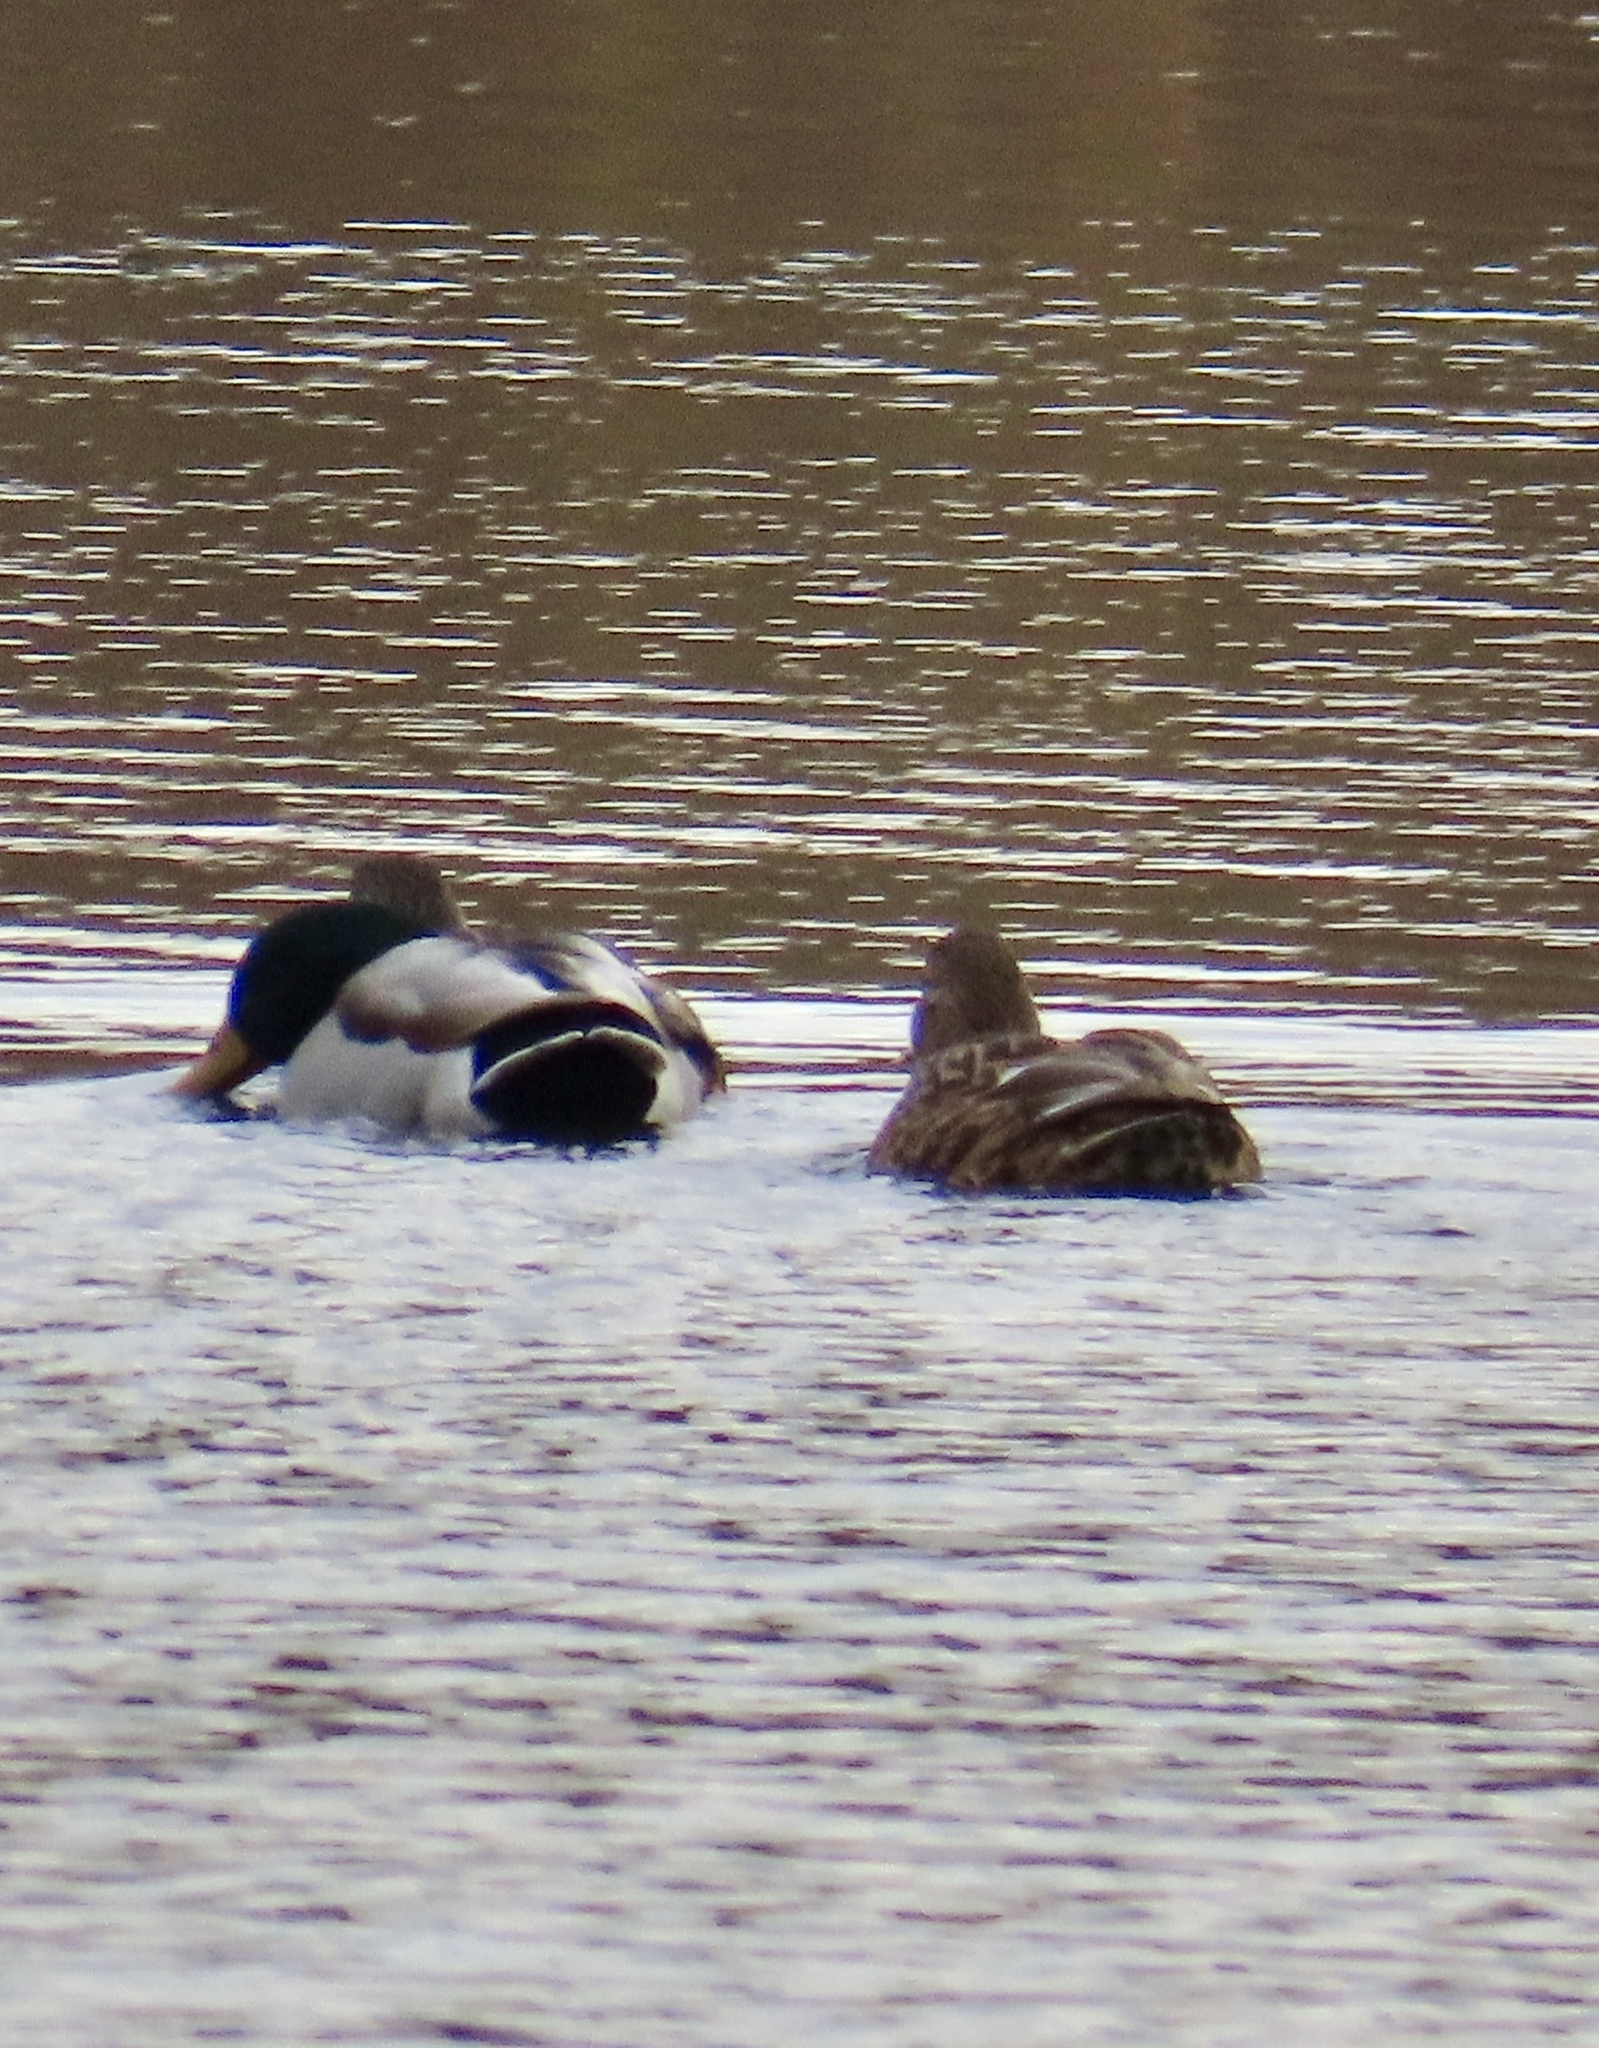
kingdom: Animalia
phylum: Chordata
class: Aves
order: Anseriformes
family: Anatidae
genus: Anas
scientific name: Anas platyrhynchos
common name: Mallard
